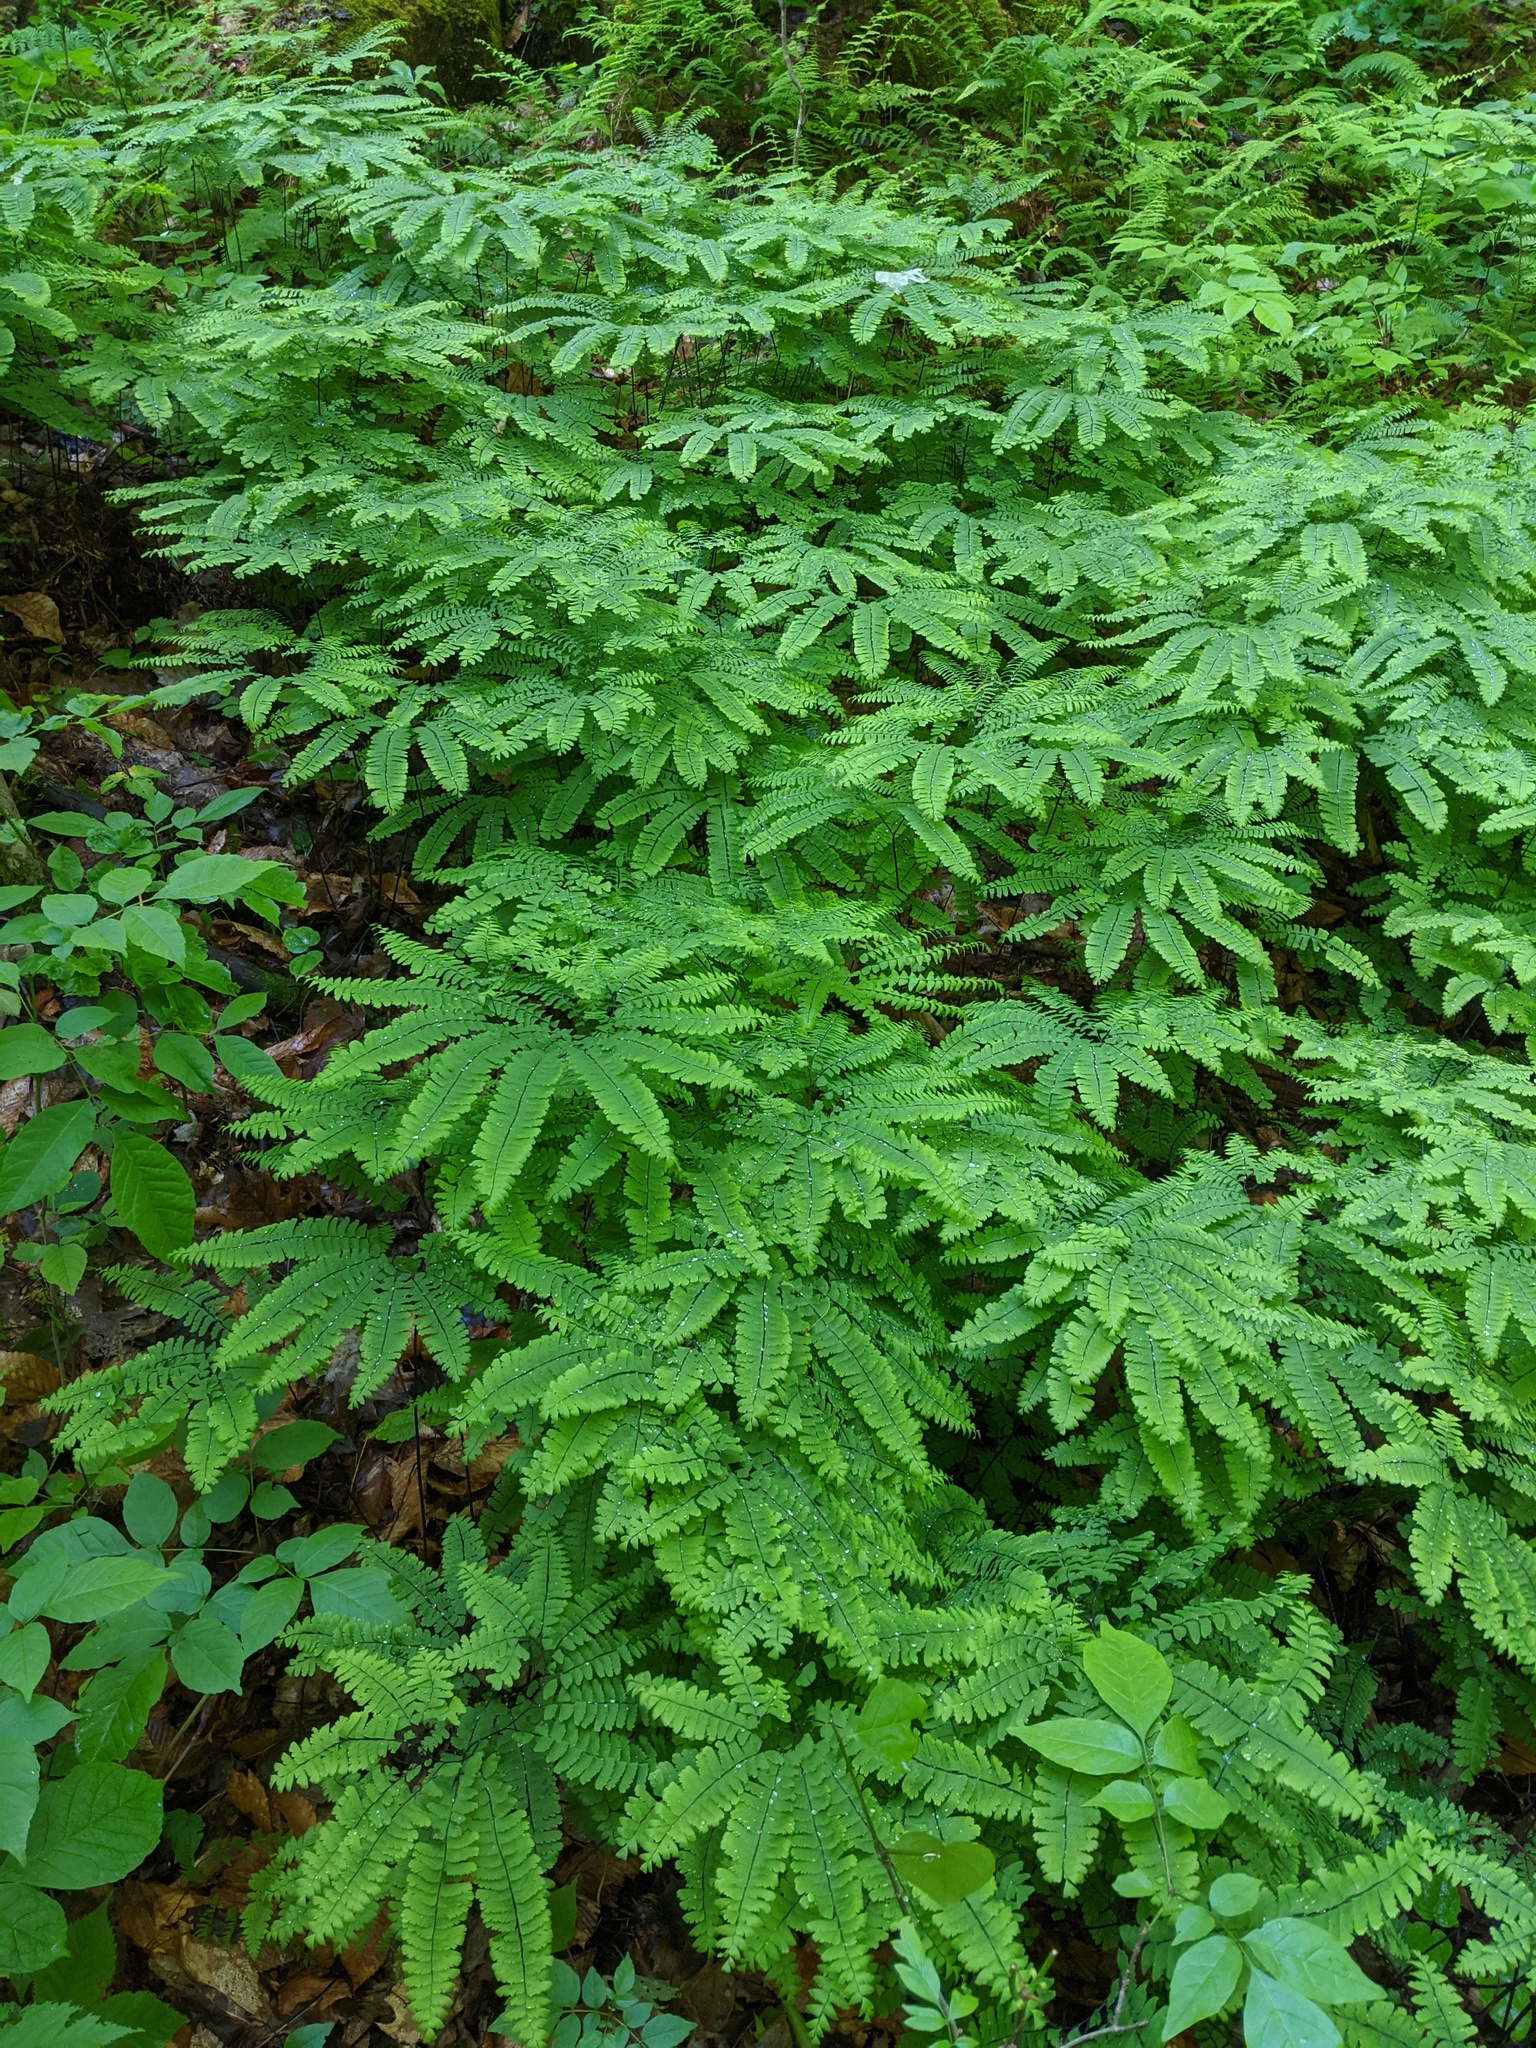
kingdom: Plantae
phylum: Tracheophyta
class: Polypodiopsida
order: Polypodiales
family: Pteridaceae
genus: Adiantum
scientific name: Adiantum pedatum
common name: Five-finger fern
